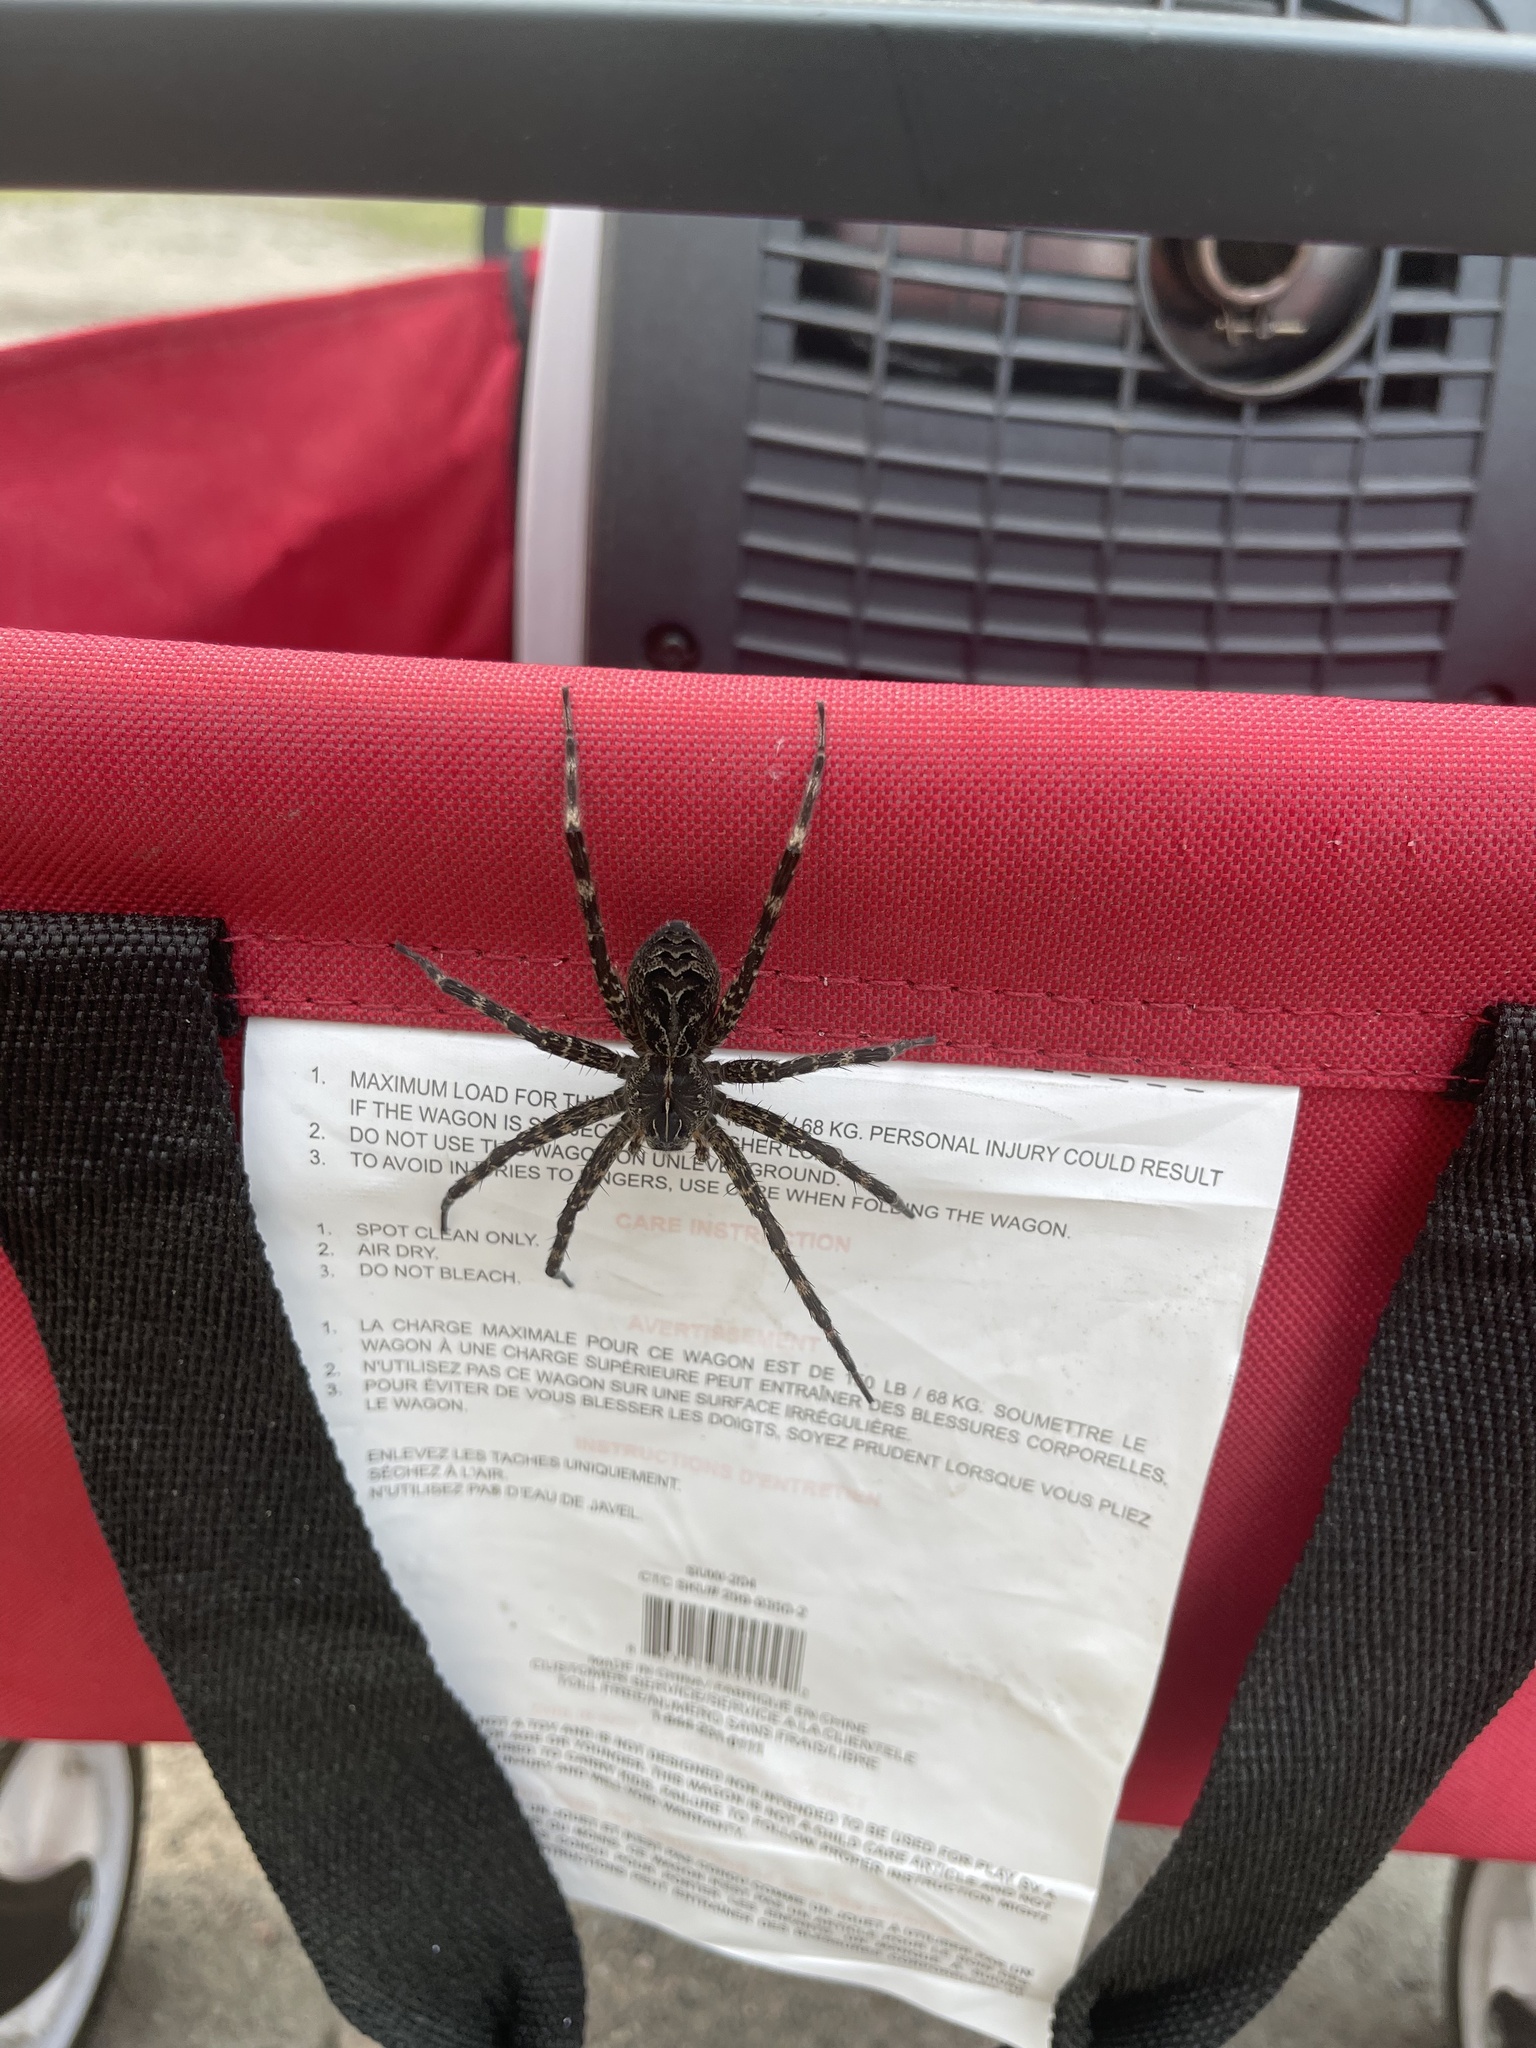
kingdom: Animalia
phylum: Arthropoda
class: Arachnida
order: Araneae
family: Pisauridae
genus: Dolomedes
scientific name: Dolomedes scriptus
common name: Striped fishing spider
